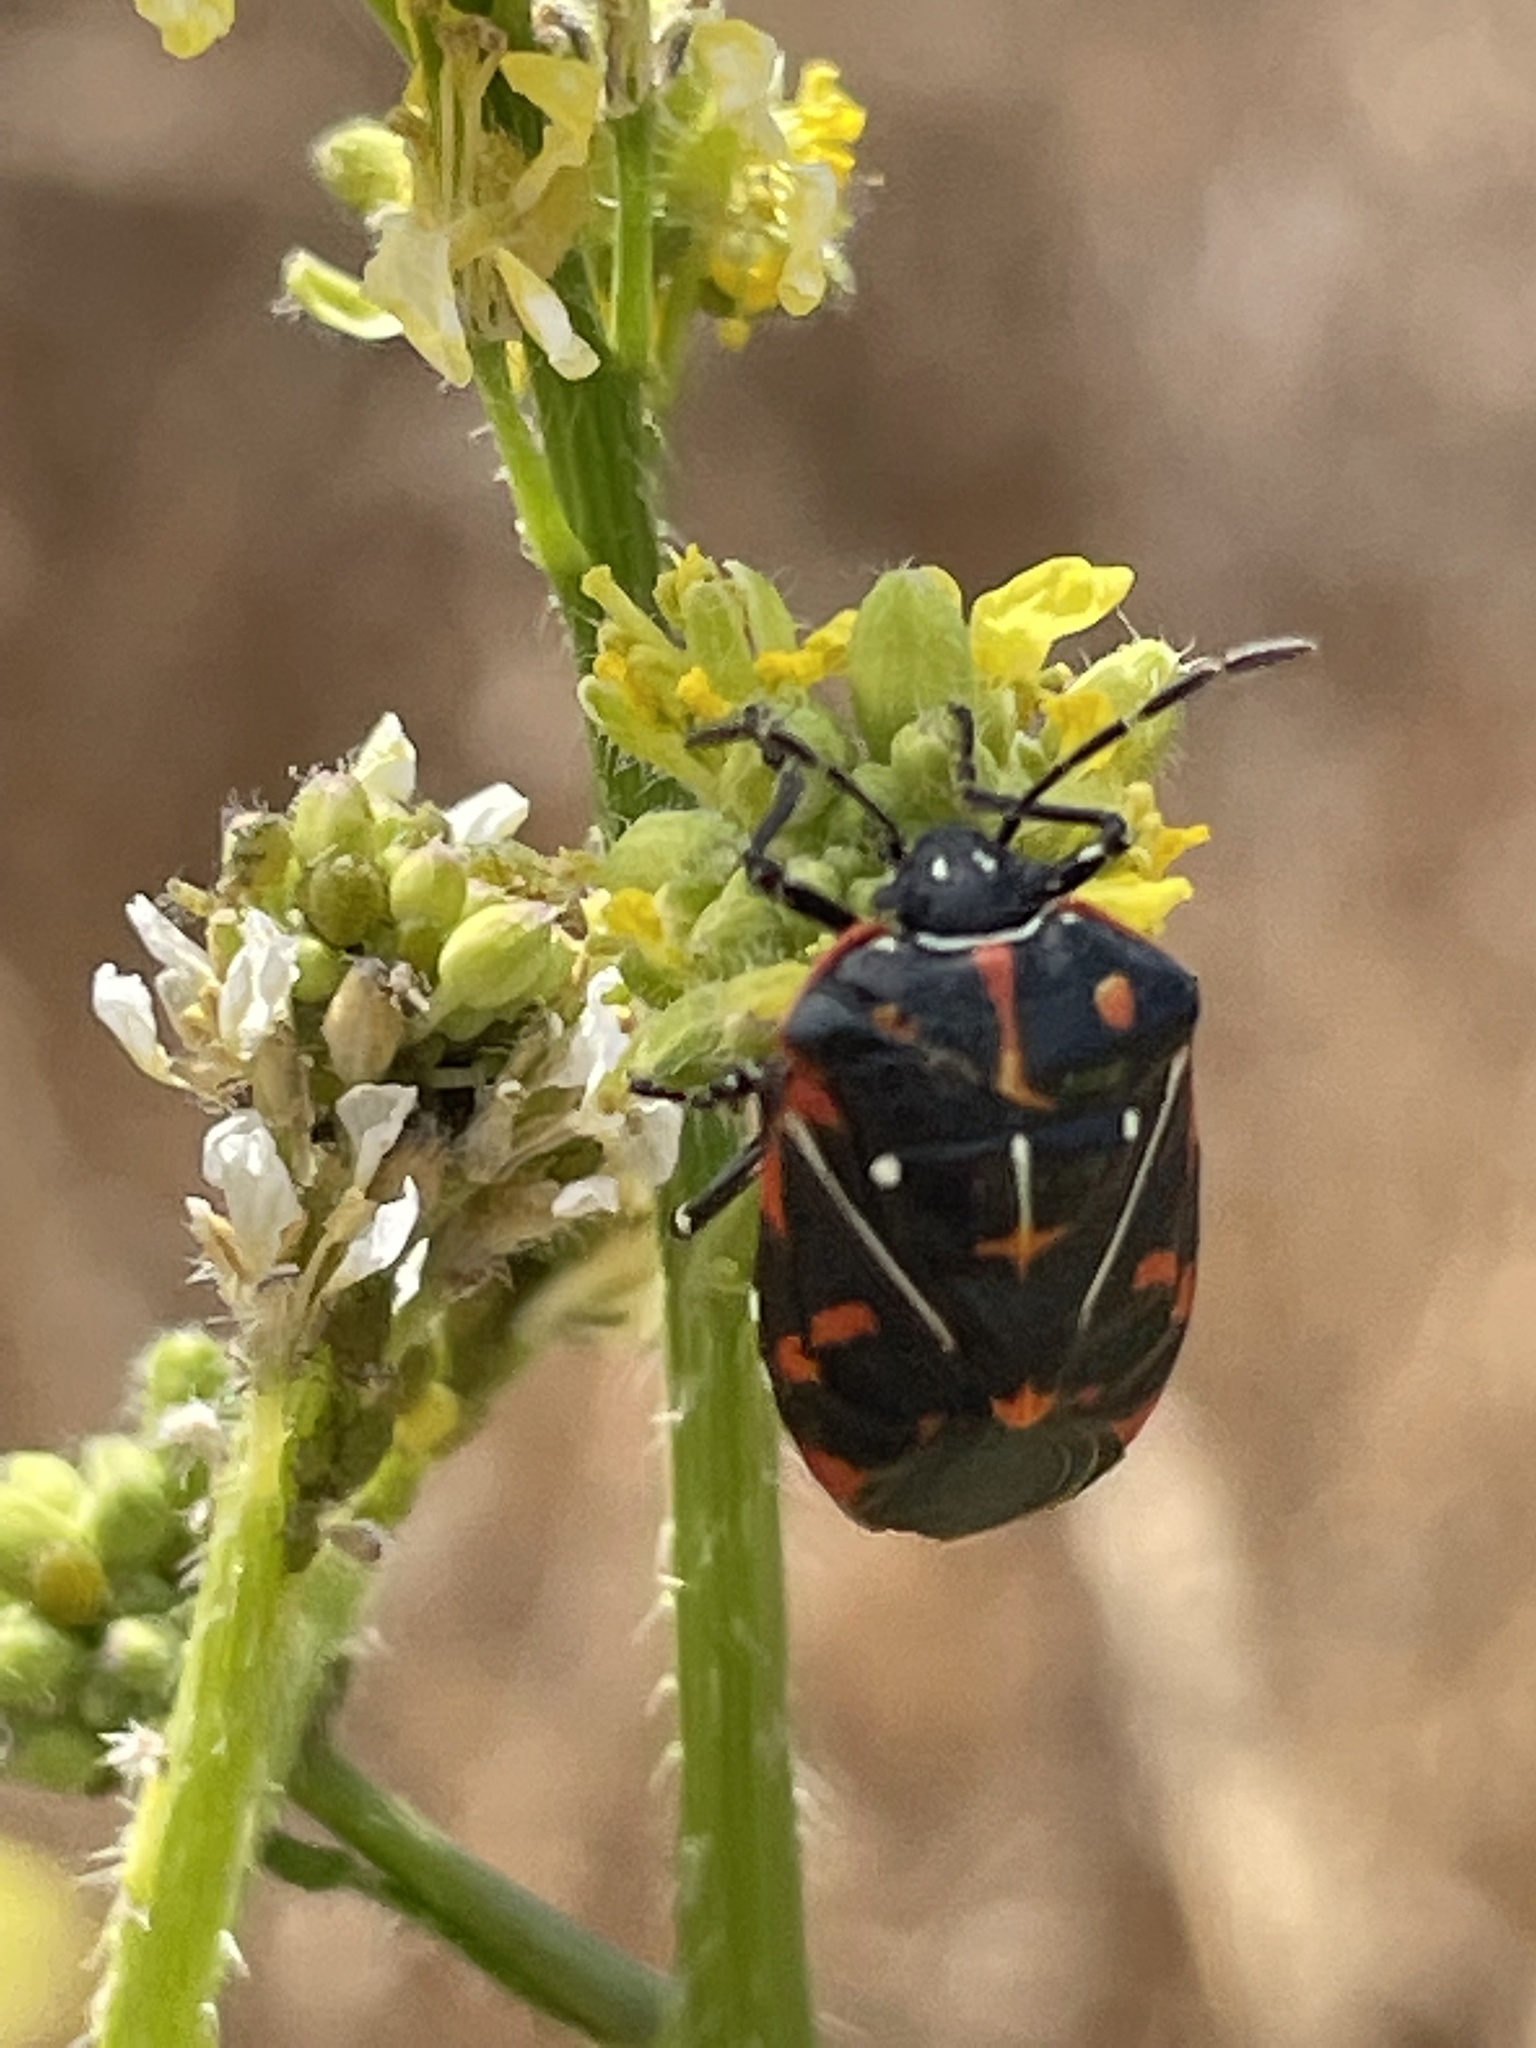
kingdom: Animalia
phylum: Arthropoda
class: Insecta
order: Hemiptera
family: Pentatomidae
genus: Murgantia
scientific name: Murgantia histrionica
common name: Harlequin bug
